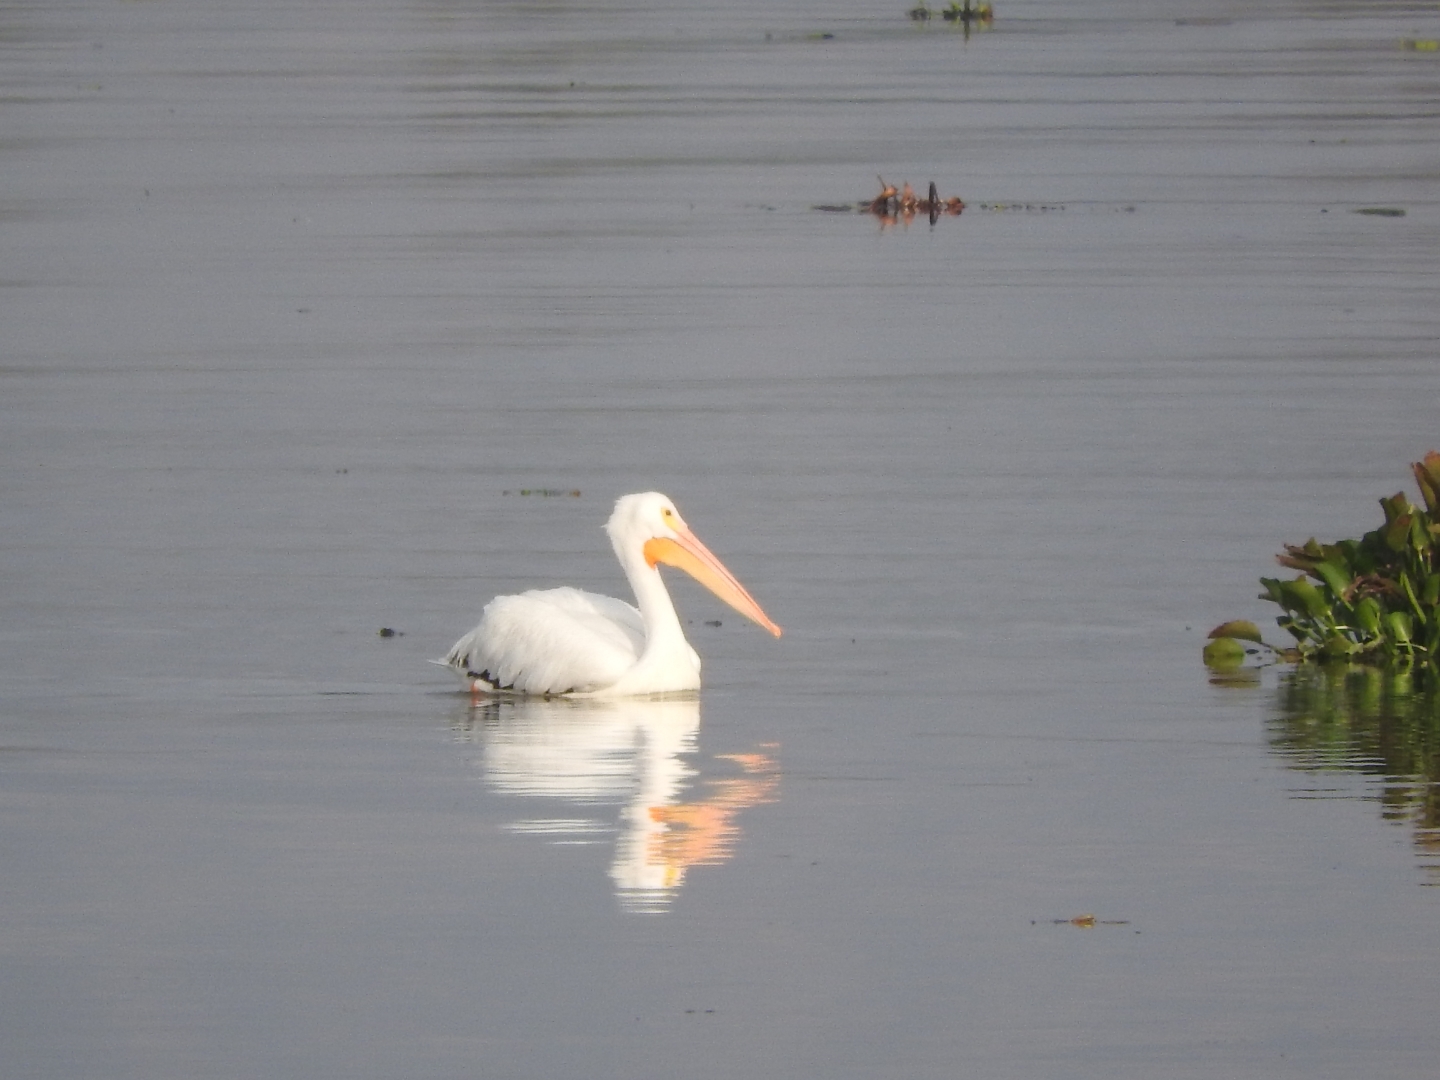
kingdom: Animalia
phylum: Chordata
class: Aves
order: Pelecaniformes
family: Pelecanidae
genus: Pelecanus
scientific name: Pelecanus erythrorhynchos
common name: American white pelican
